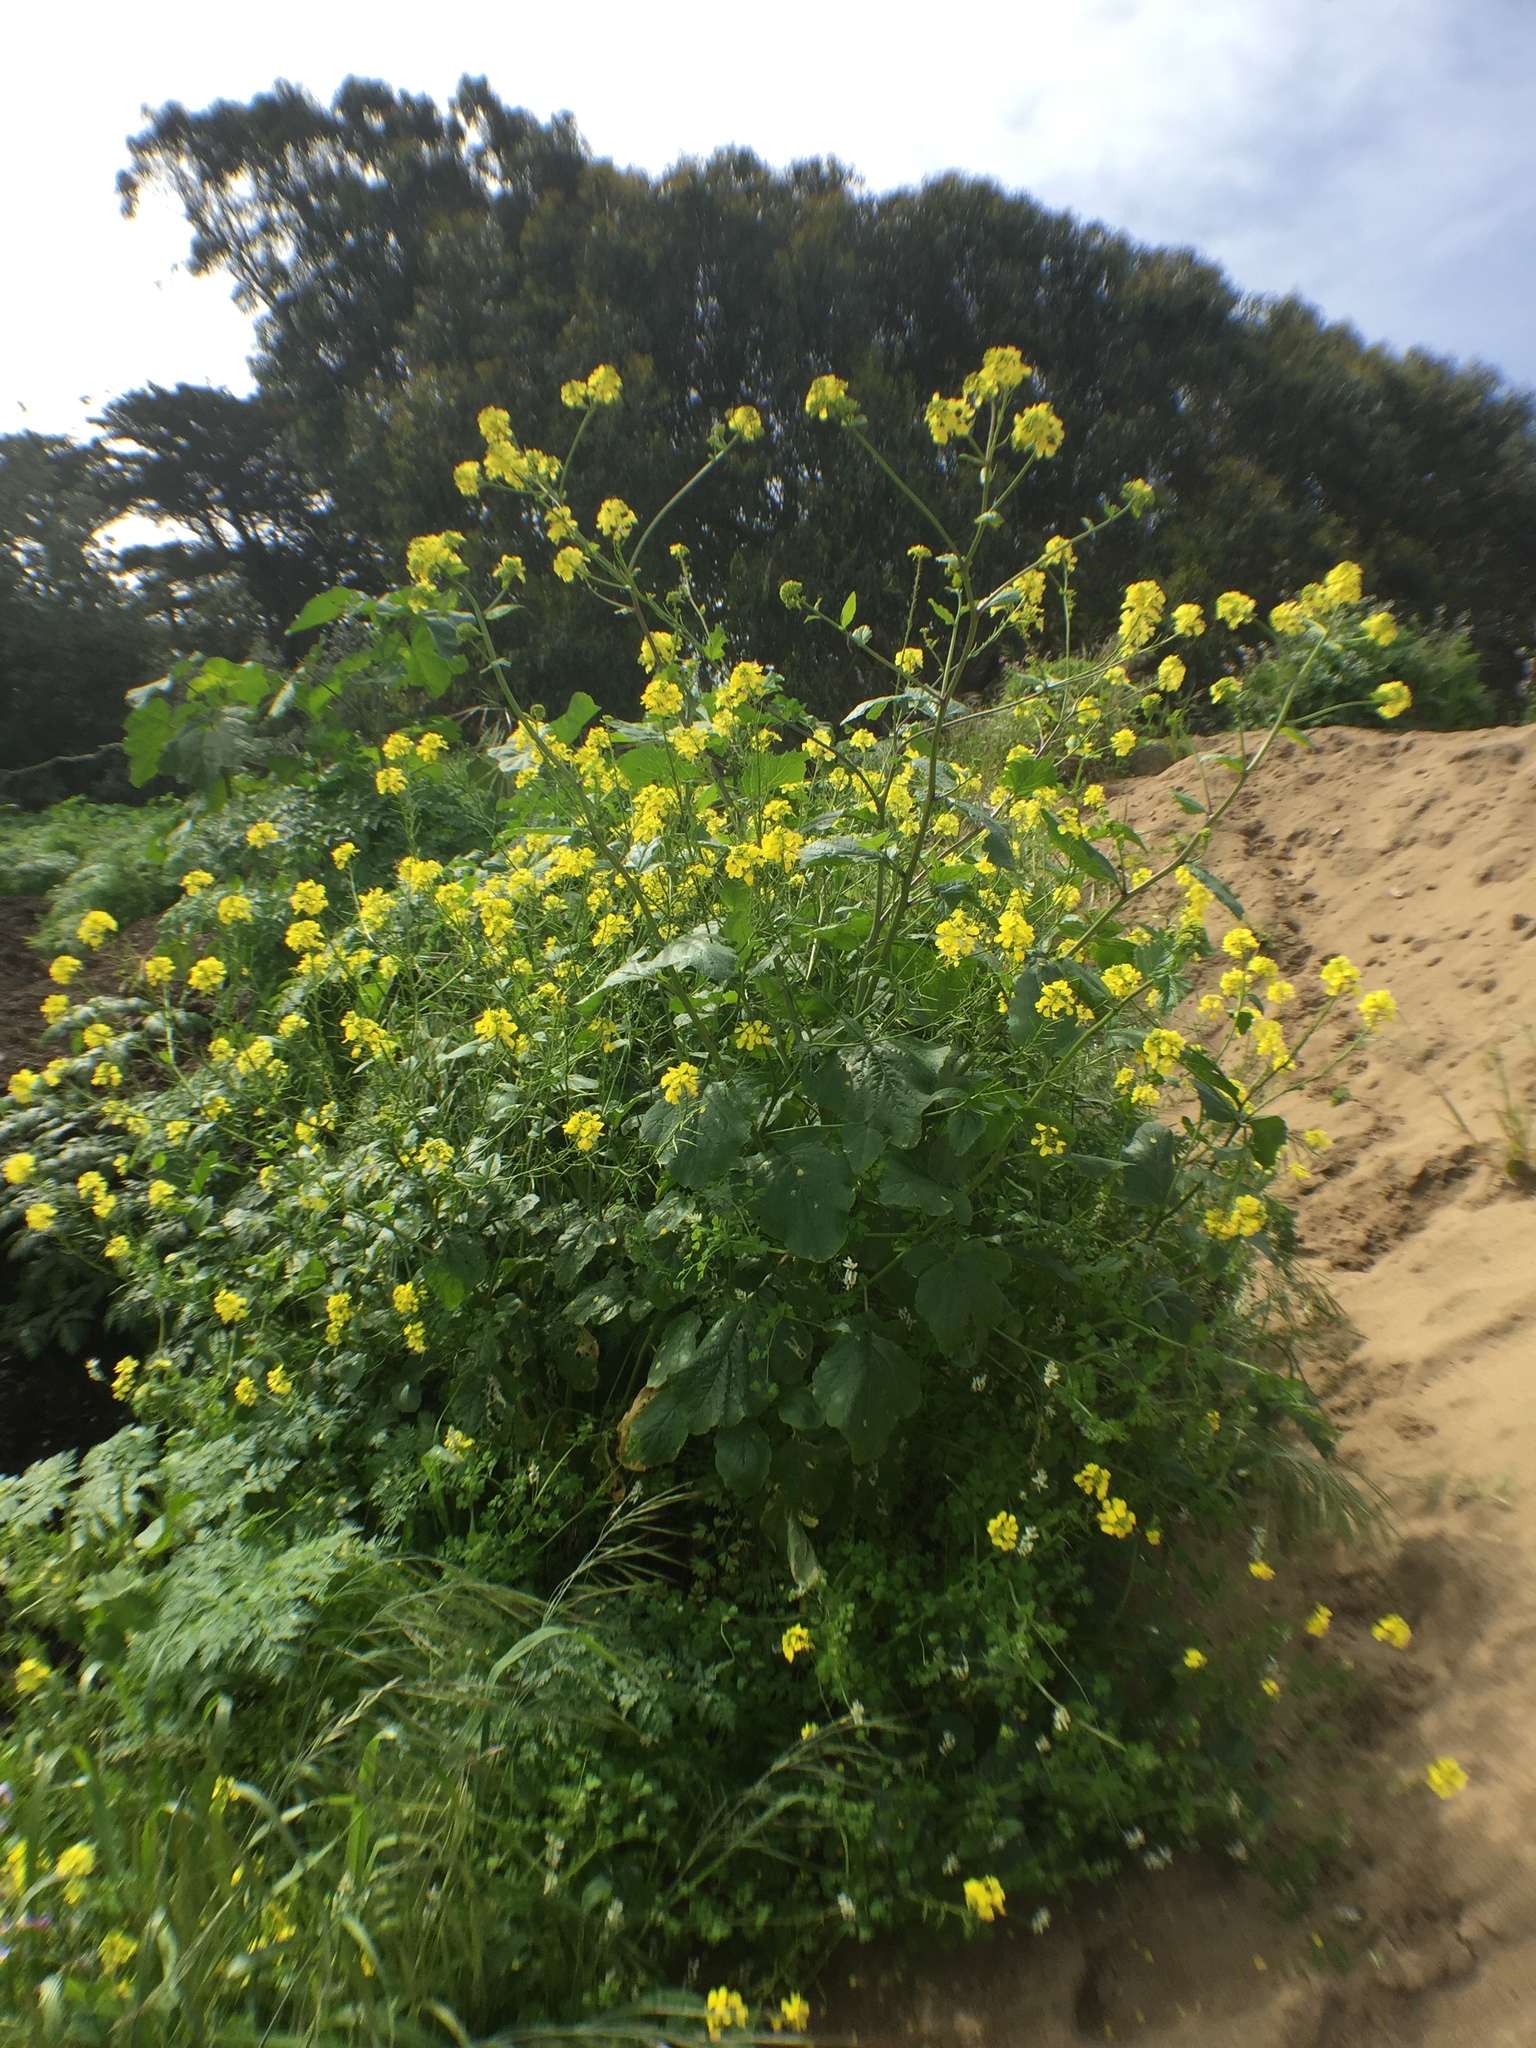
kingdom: Plantae
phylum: Tracheophyta
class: Magnoliopsida
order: Brassicales
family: Brassicaceae
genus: Brassica
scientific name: Brassica nigra
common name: Black mustard
